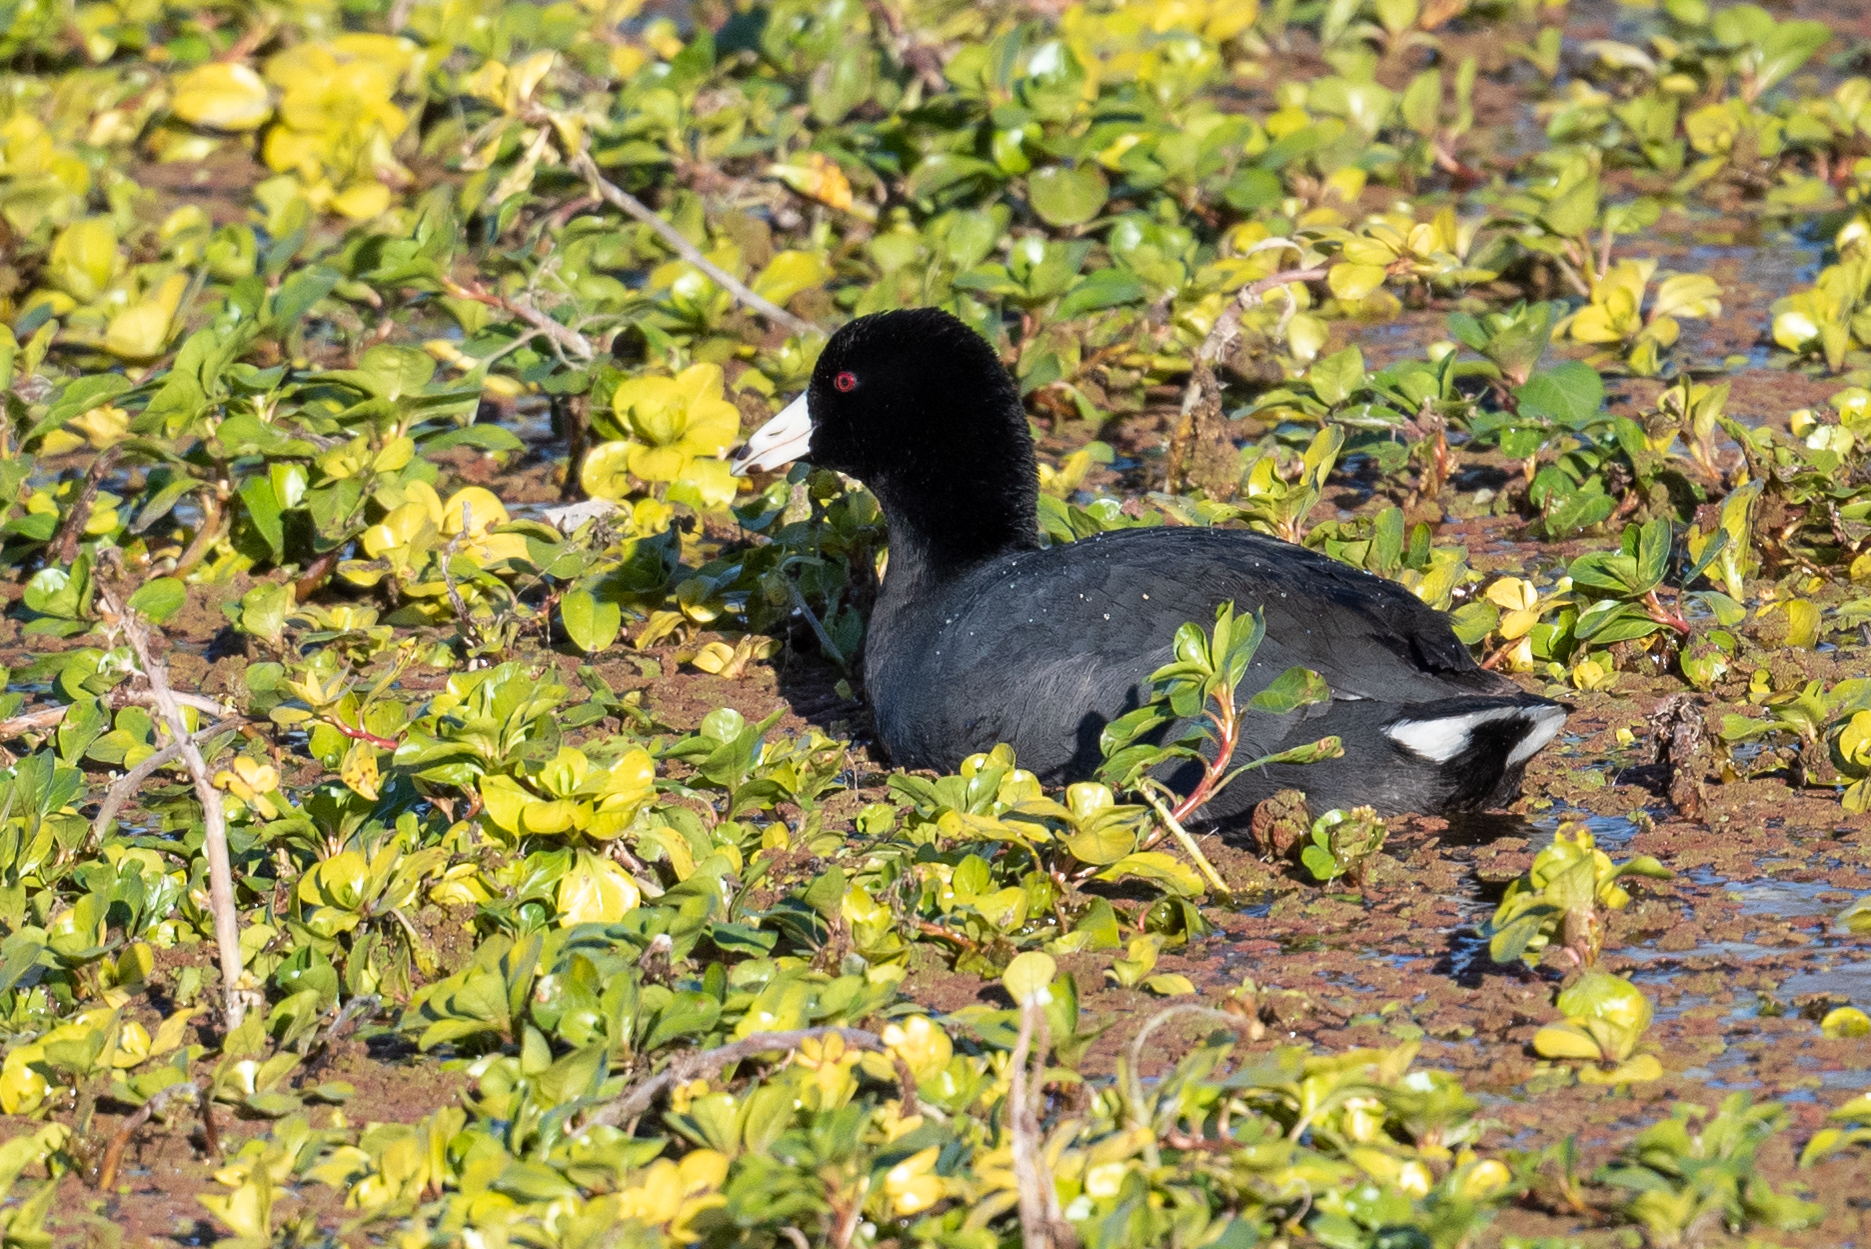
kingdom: Animalia
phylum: Chordata
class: Aves
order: Gruiformes
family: Rallidae
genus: Fulica
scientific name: Fulica americana
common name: American coot
